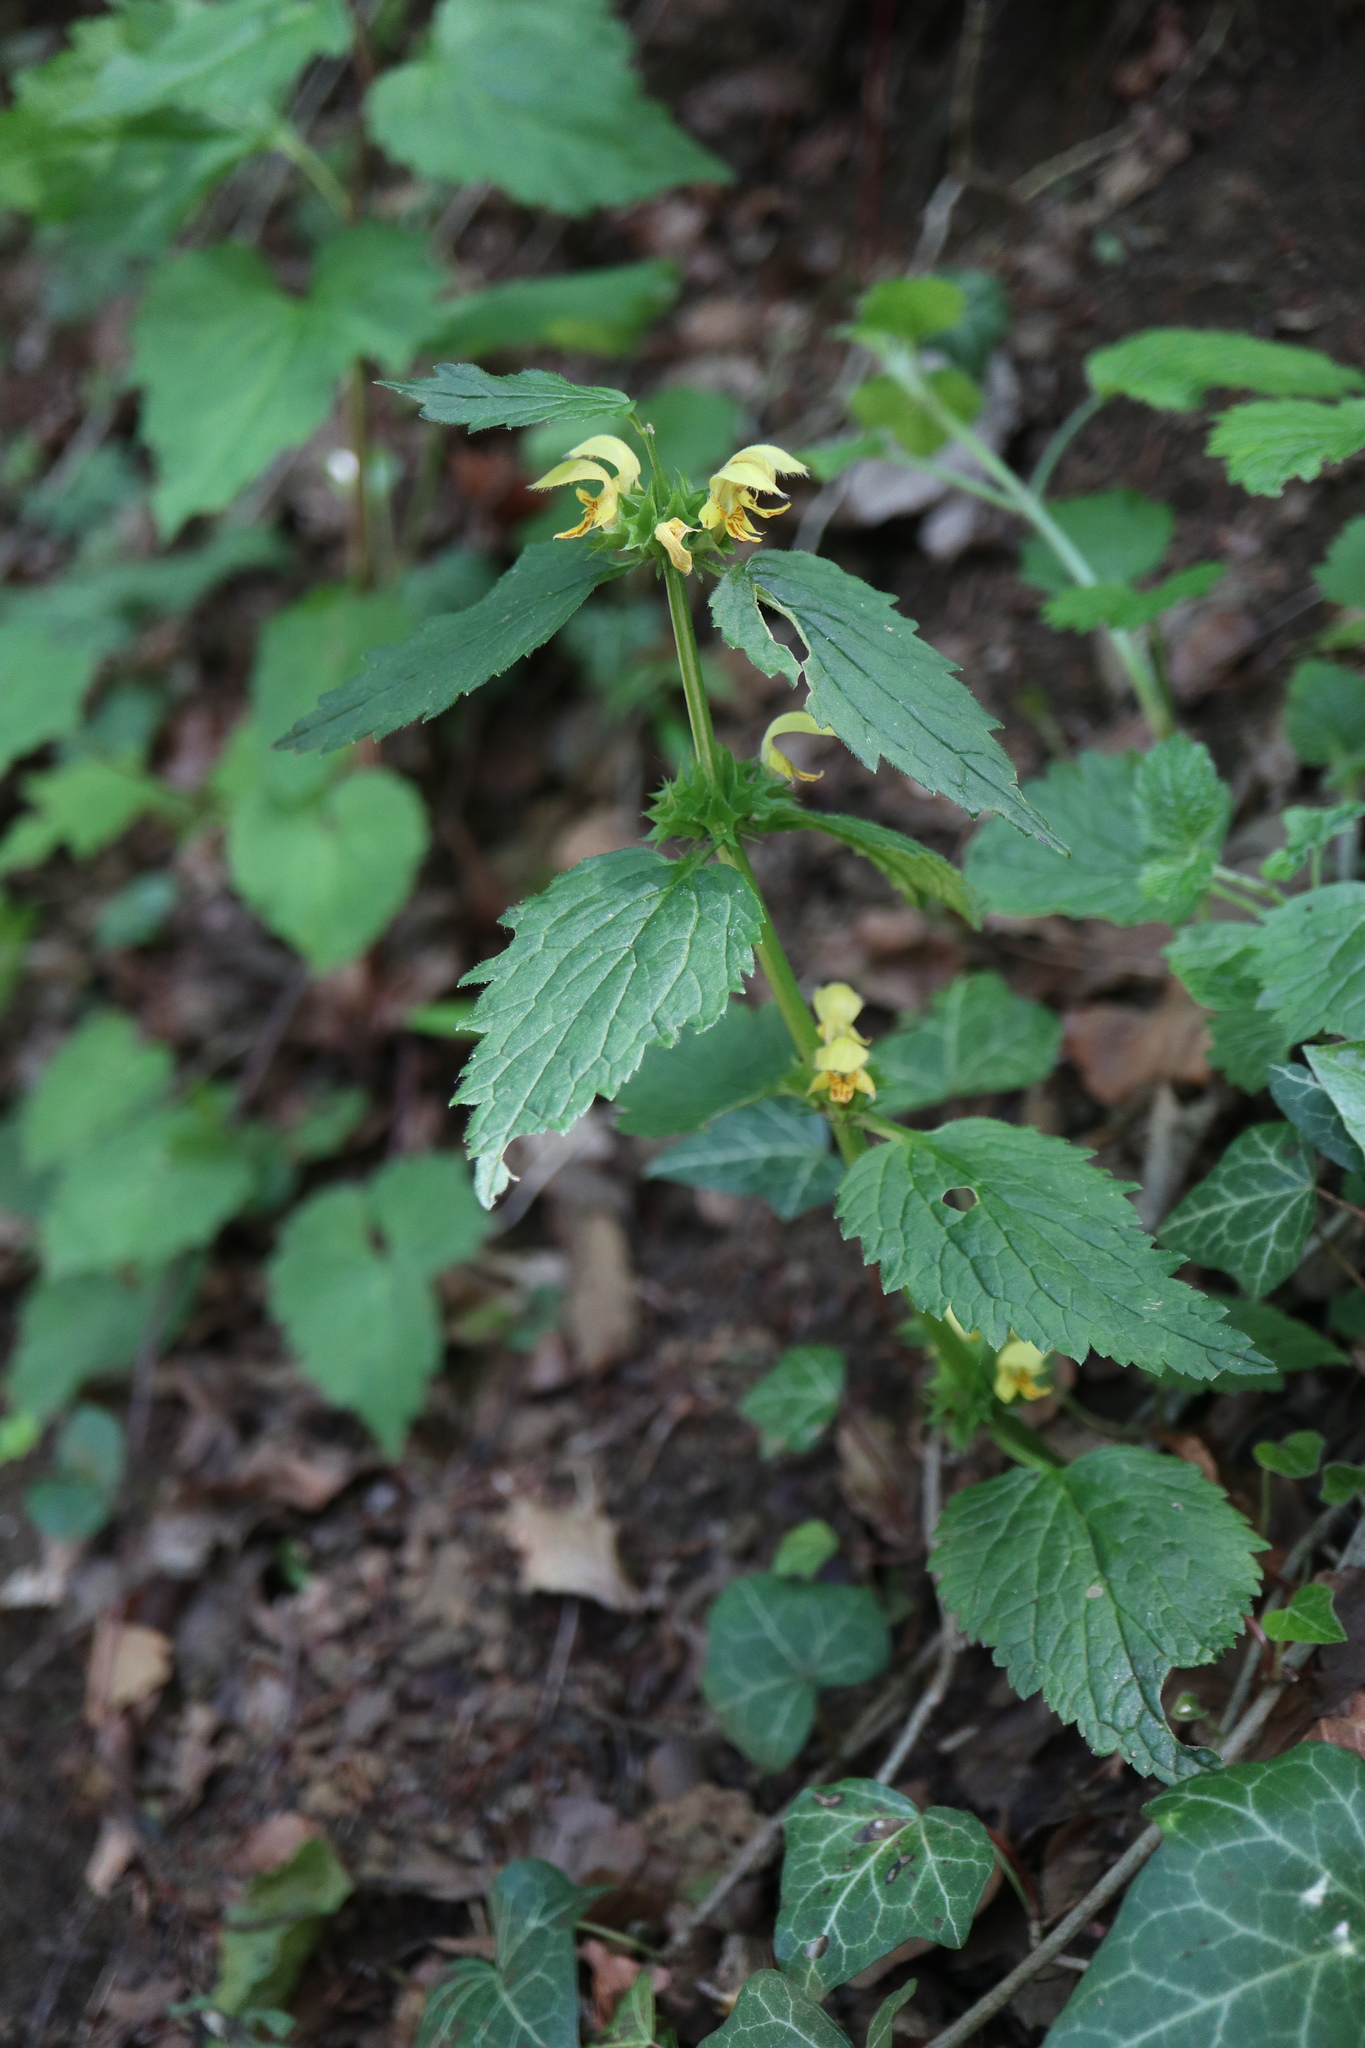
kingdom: Plantae
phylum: Tracheophyta
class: Magnoliopsida
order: Lamiales
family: Lamiaceae
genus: Lamium
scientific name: Lamium galeobdolon
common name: Yellow archangel
